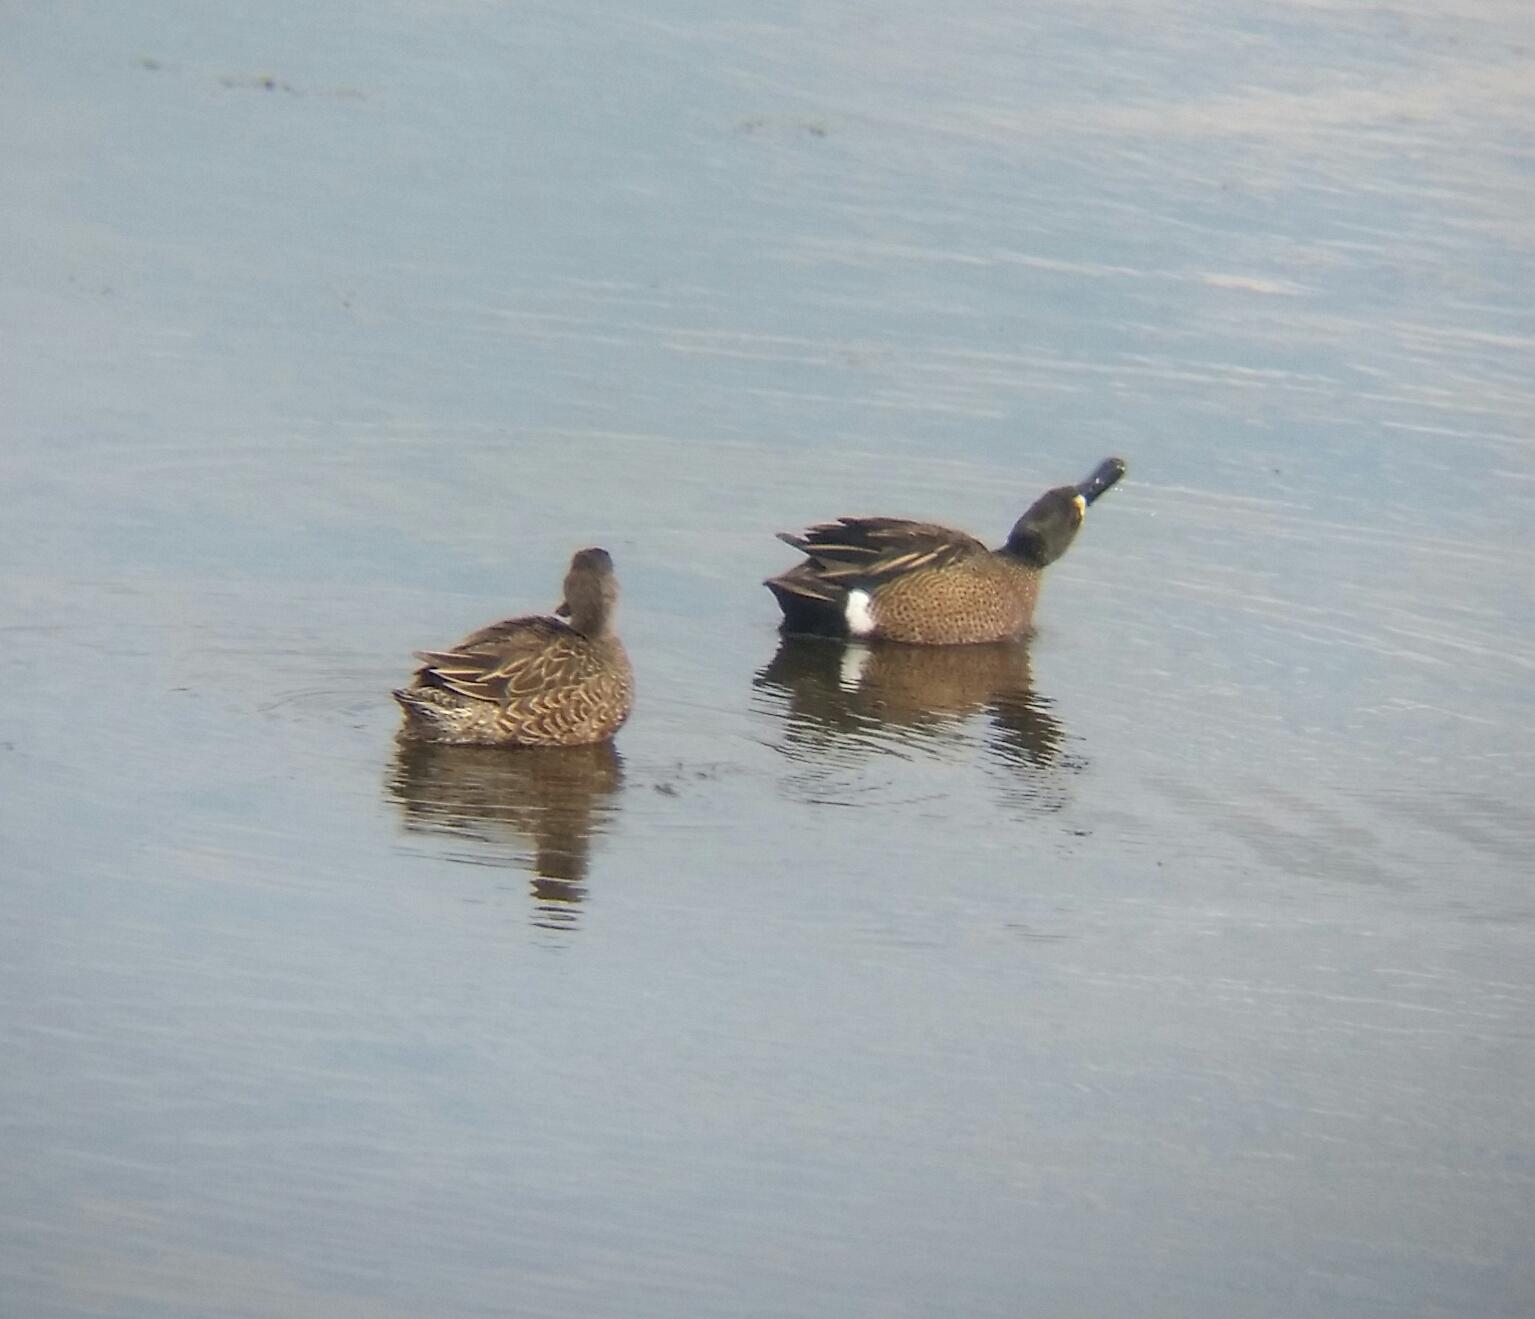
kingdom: Animalia
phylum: Chordata
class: Aves
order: Anseriformes
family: Anatidae
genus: Spatula
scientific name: Spatula discors
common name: Blue-winged teal
